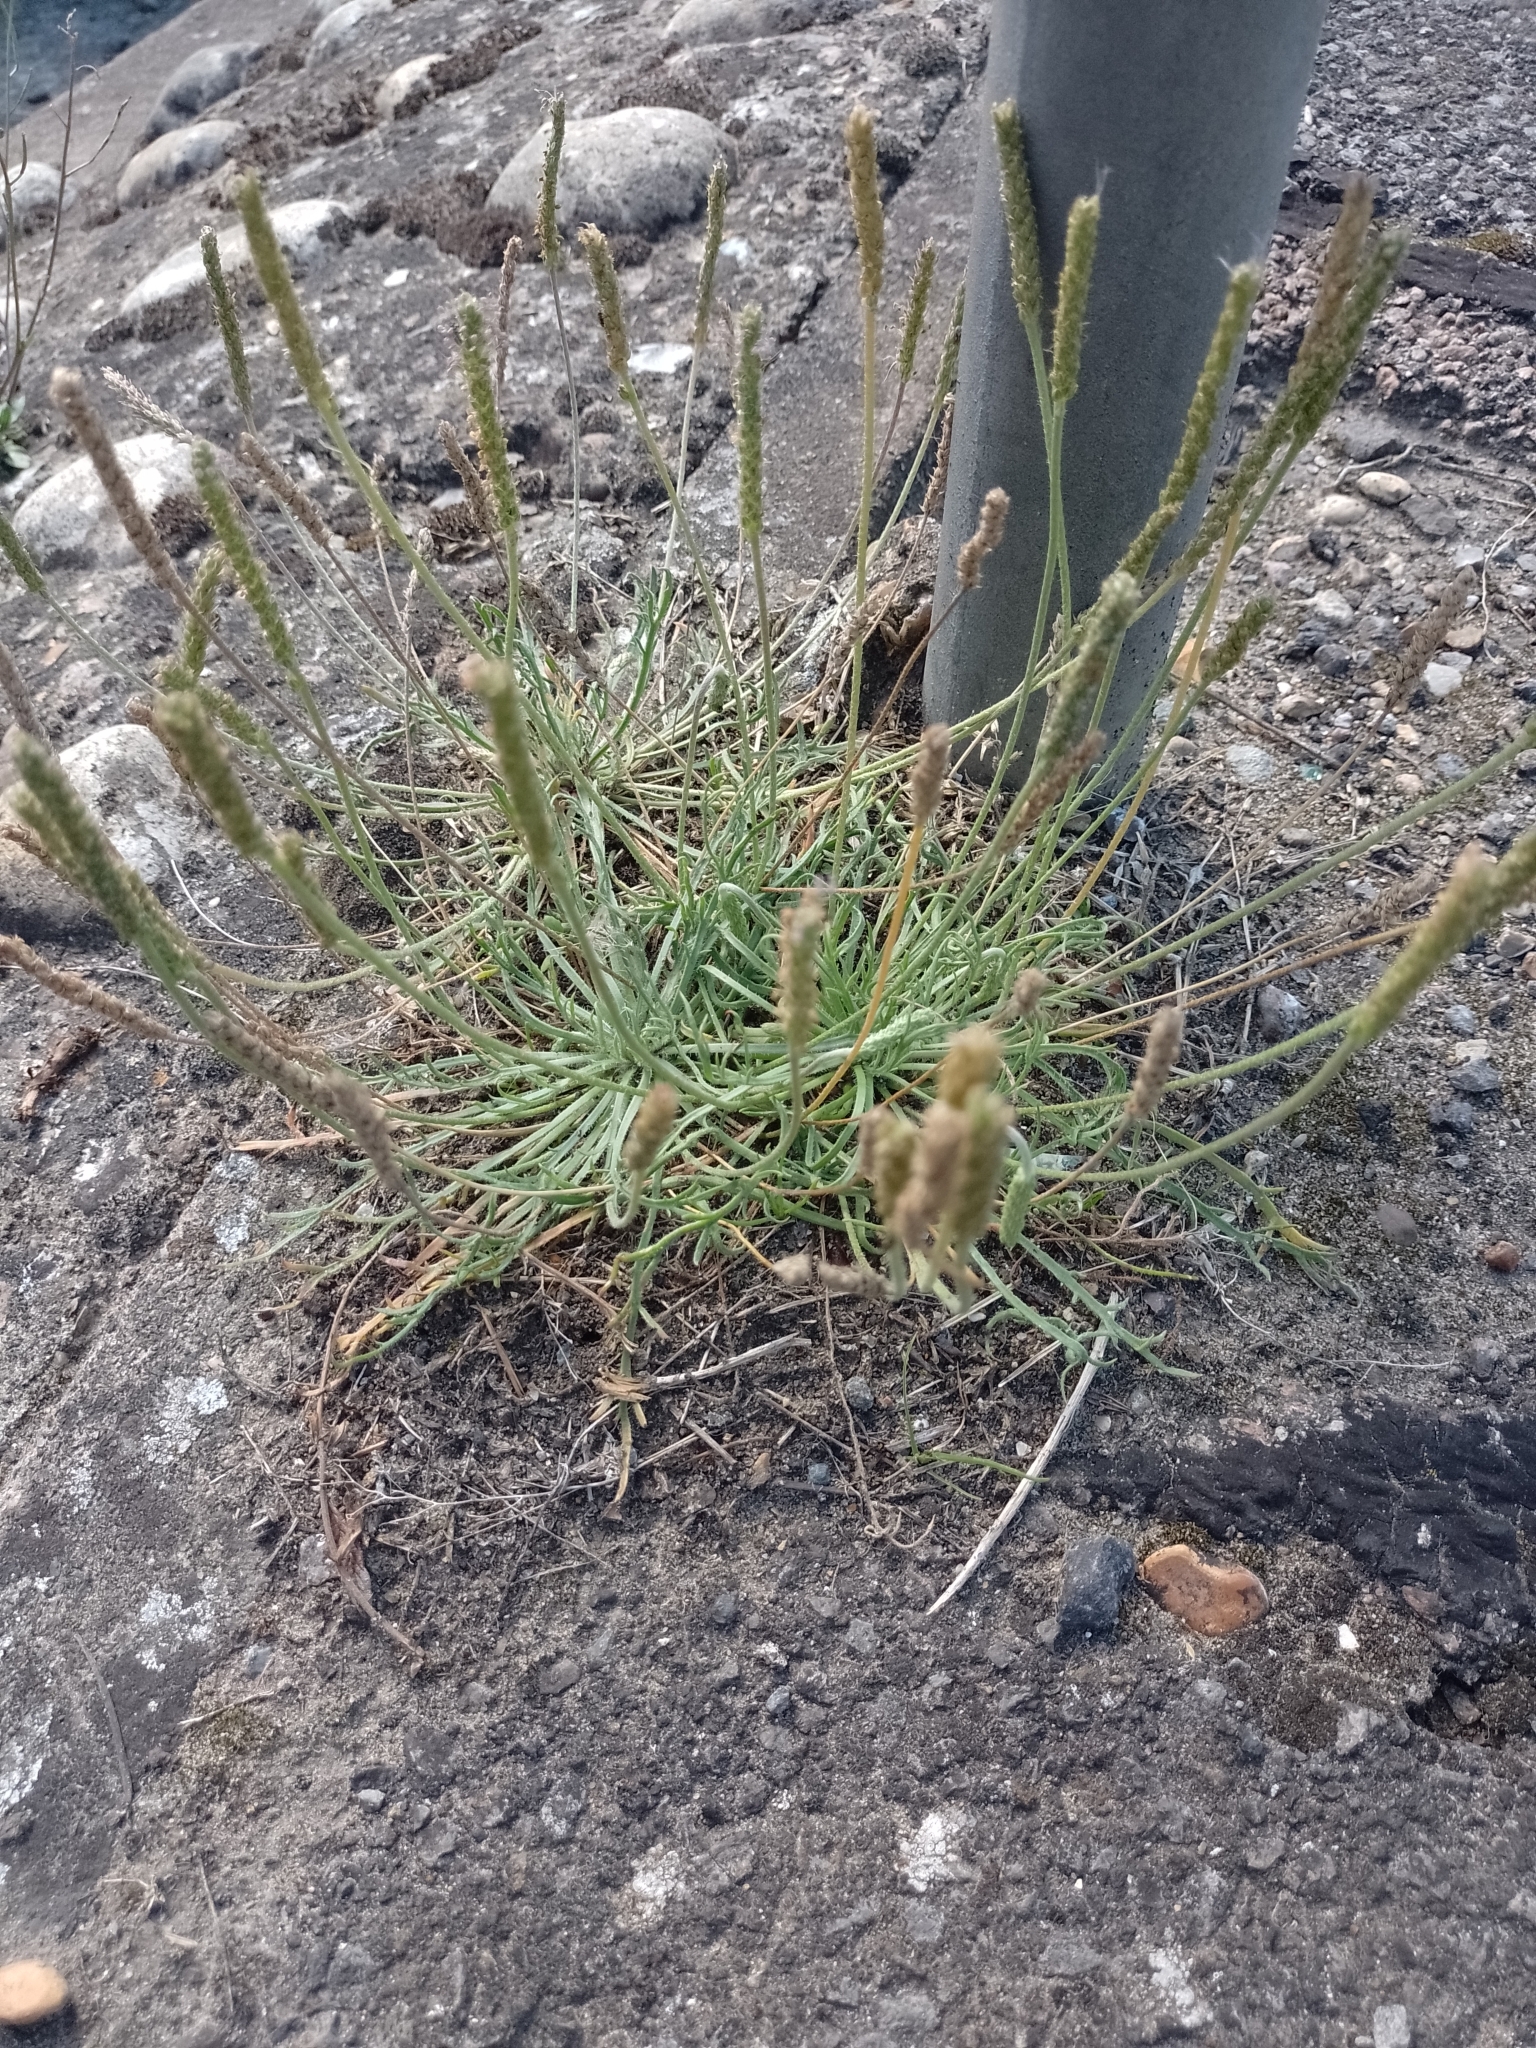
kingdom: Plantae
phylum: Tracheophyta
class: Magnoliopsida
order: Lamiales
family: Plantaginaceae
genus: Plantago
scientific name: Plantago coronopus
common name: Buck's-horn plantain
